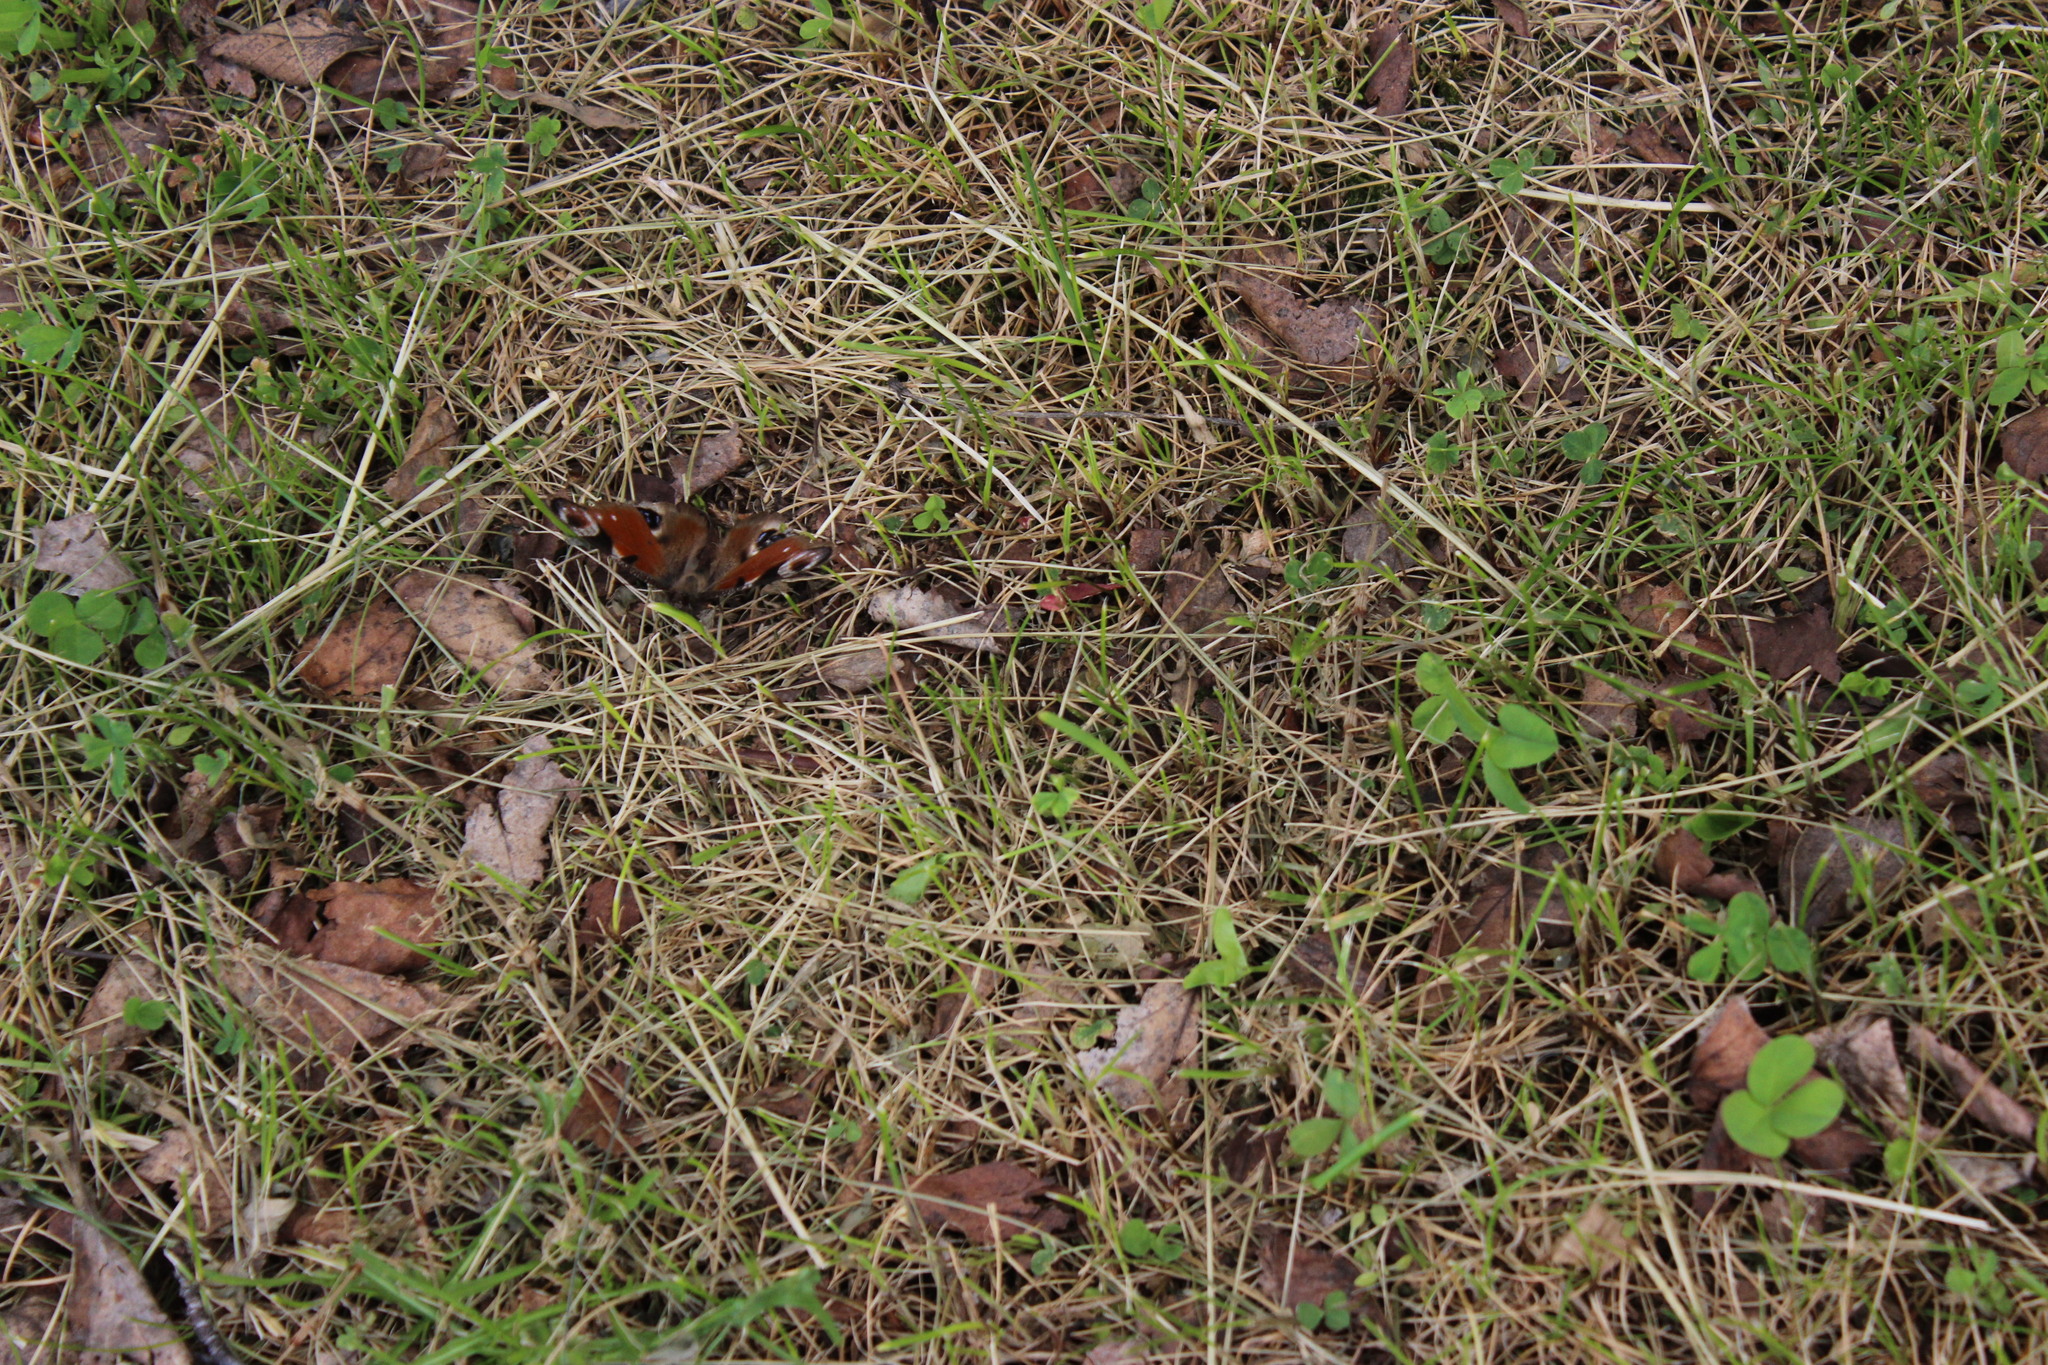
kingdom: Animalia
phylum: Arthropoda
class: Insecta
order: Lepidoptera
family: Nymphalidae
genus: Aglais
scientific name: Aglais io
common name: Peacock
